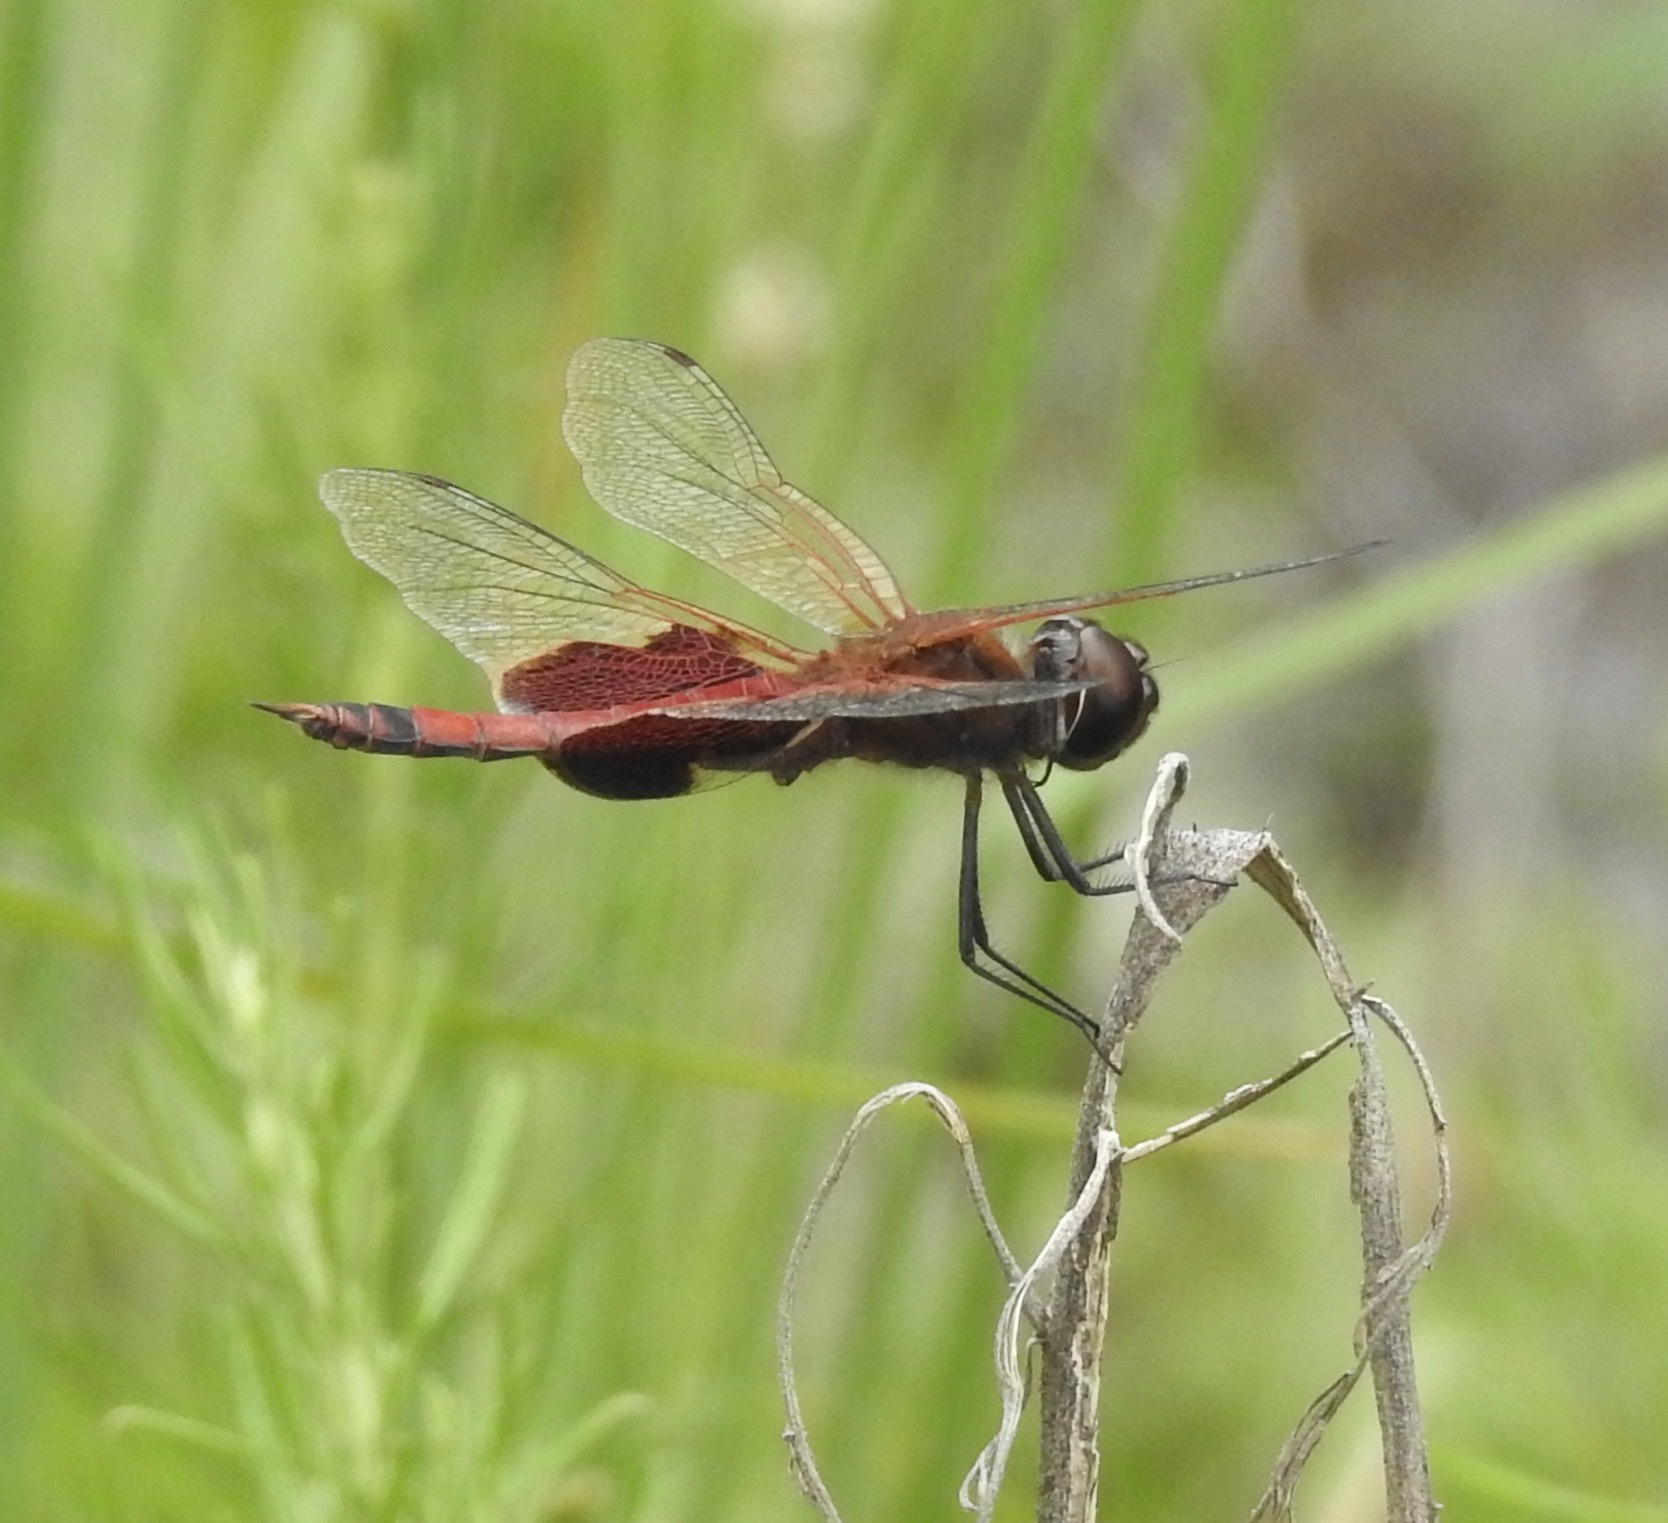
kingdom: Animalia
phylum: Arthropoda
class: Insecta
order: Odonata
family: Libellulidae
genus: Tramea
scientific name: Tramea carolina
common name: Carolina saddlebags
